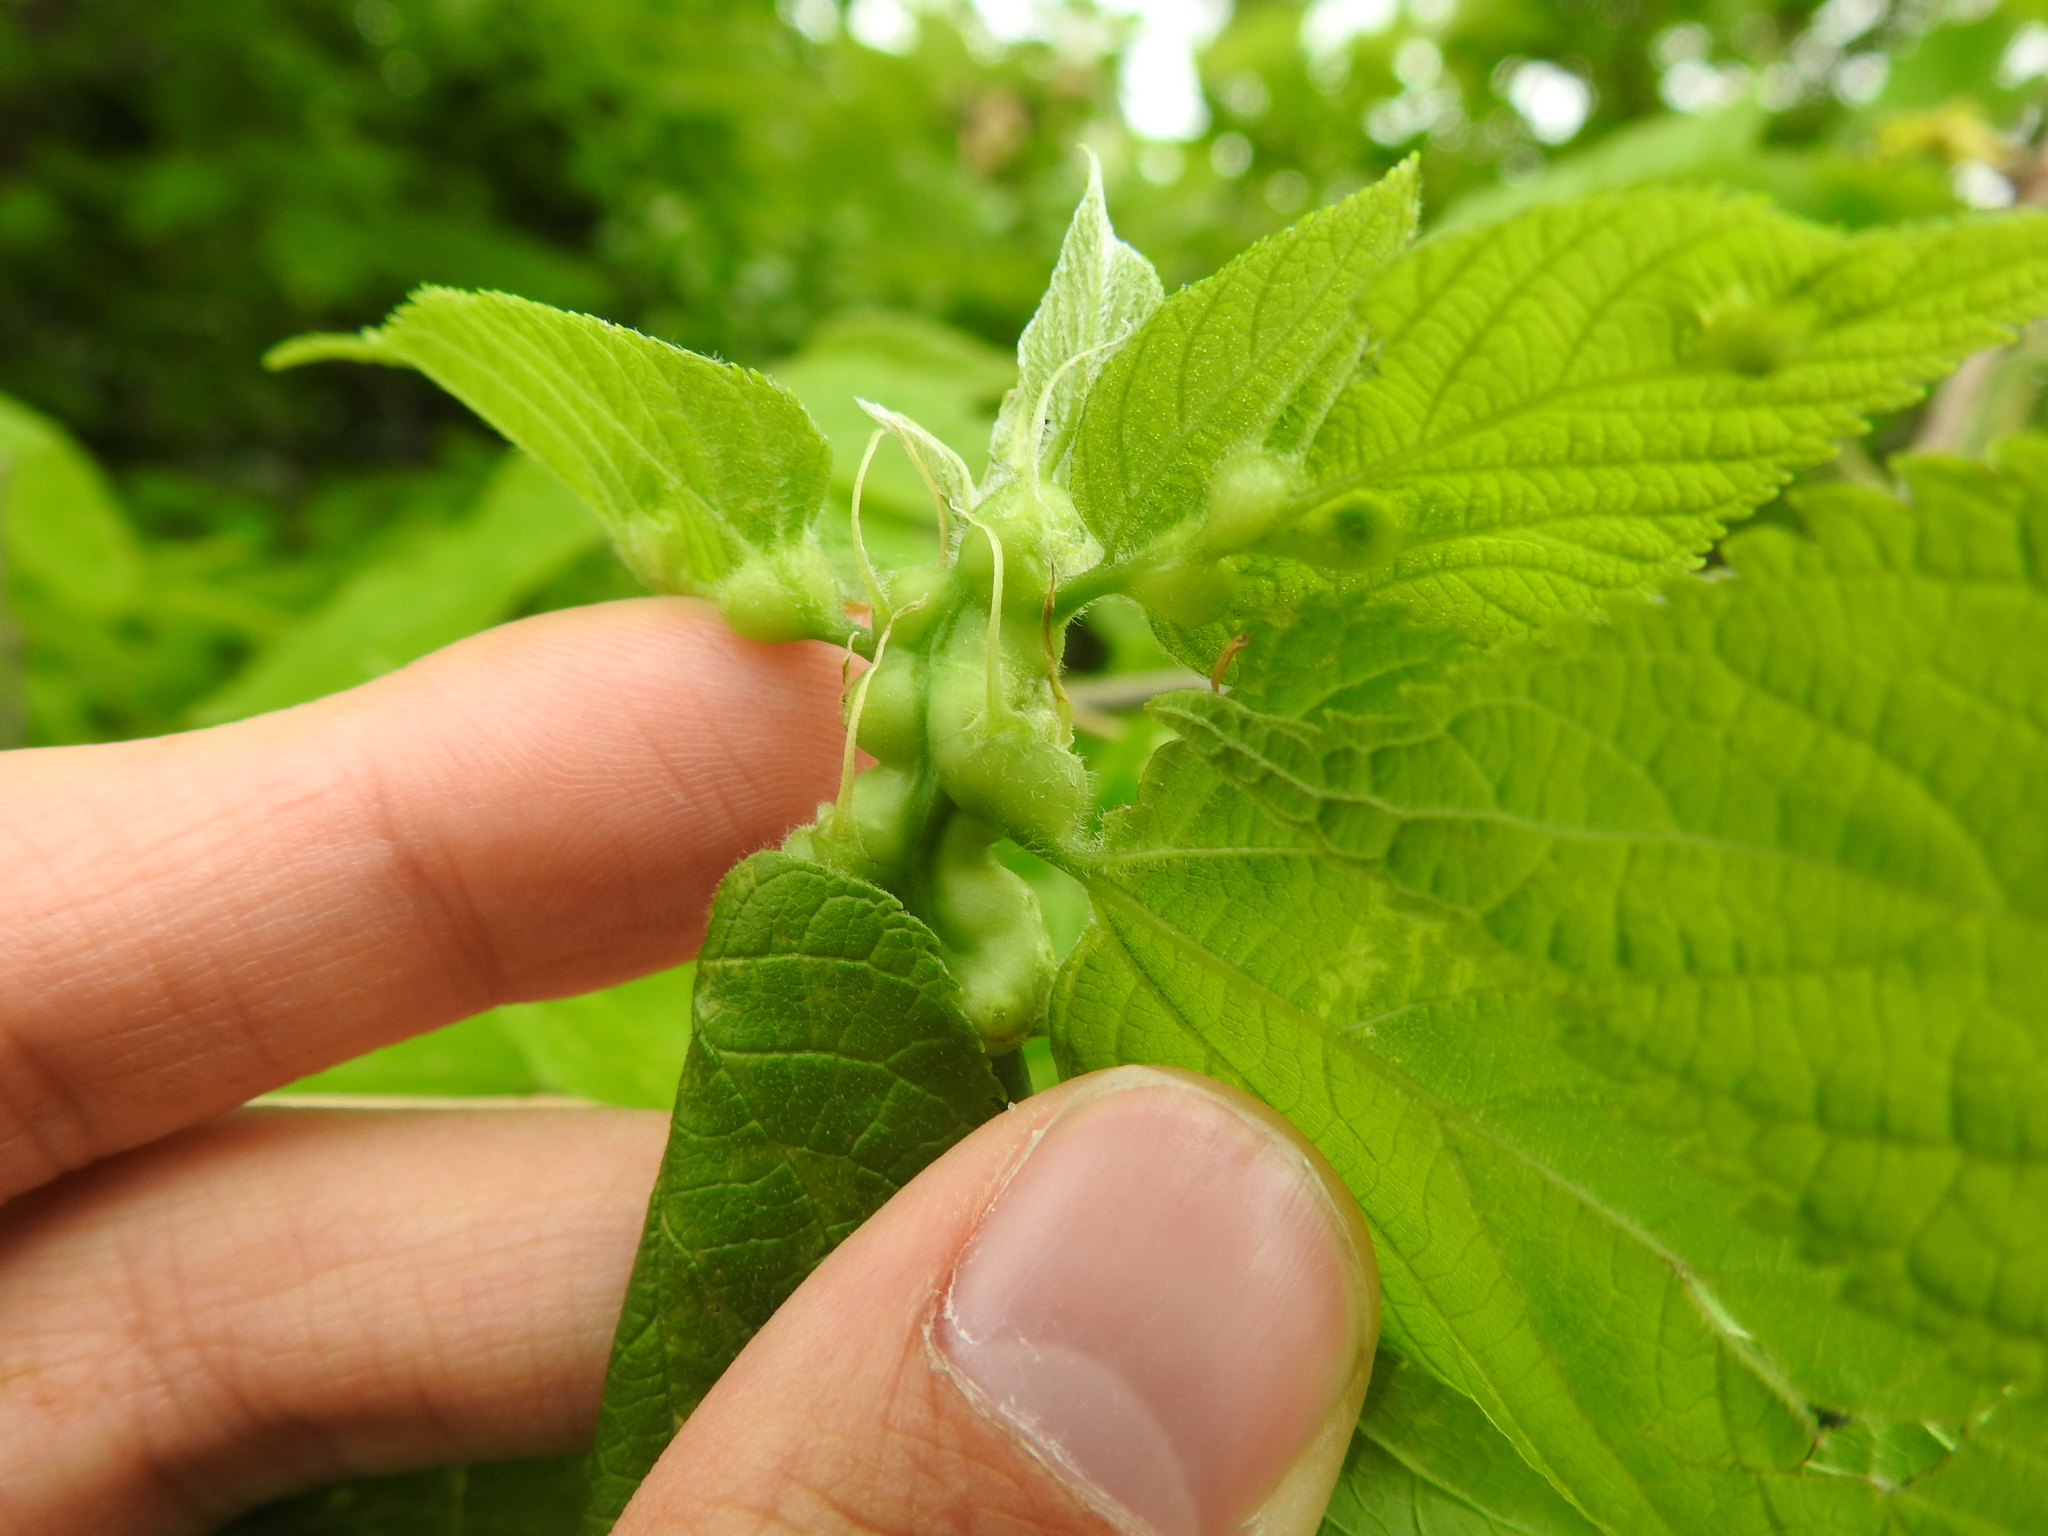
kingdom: Animalia
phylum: Arthropoda
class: Insecta
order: Diptera
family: Cecidomyiidae
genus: Celticecis
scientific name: Celticecis expulsa
